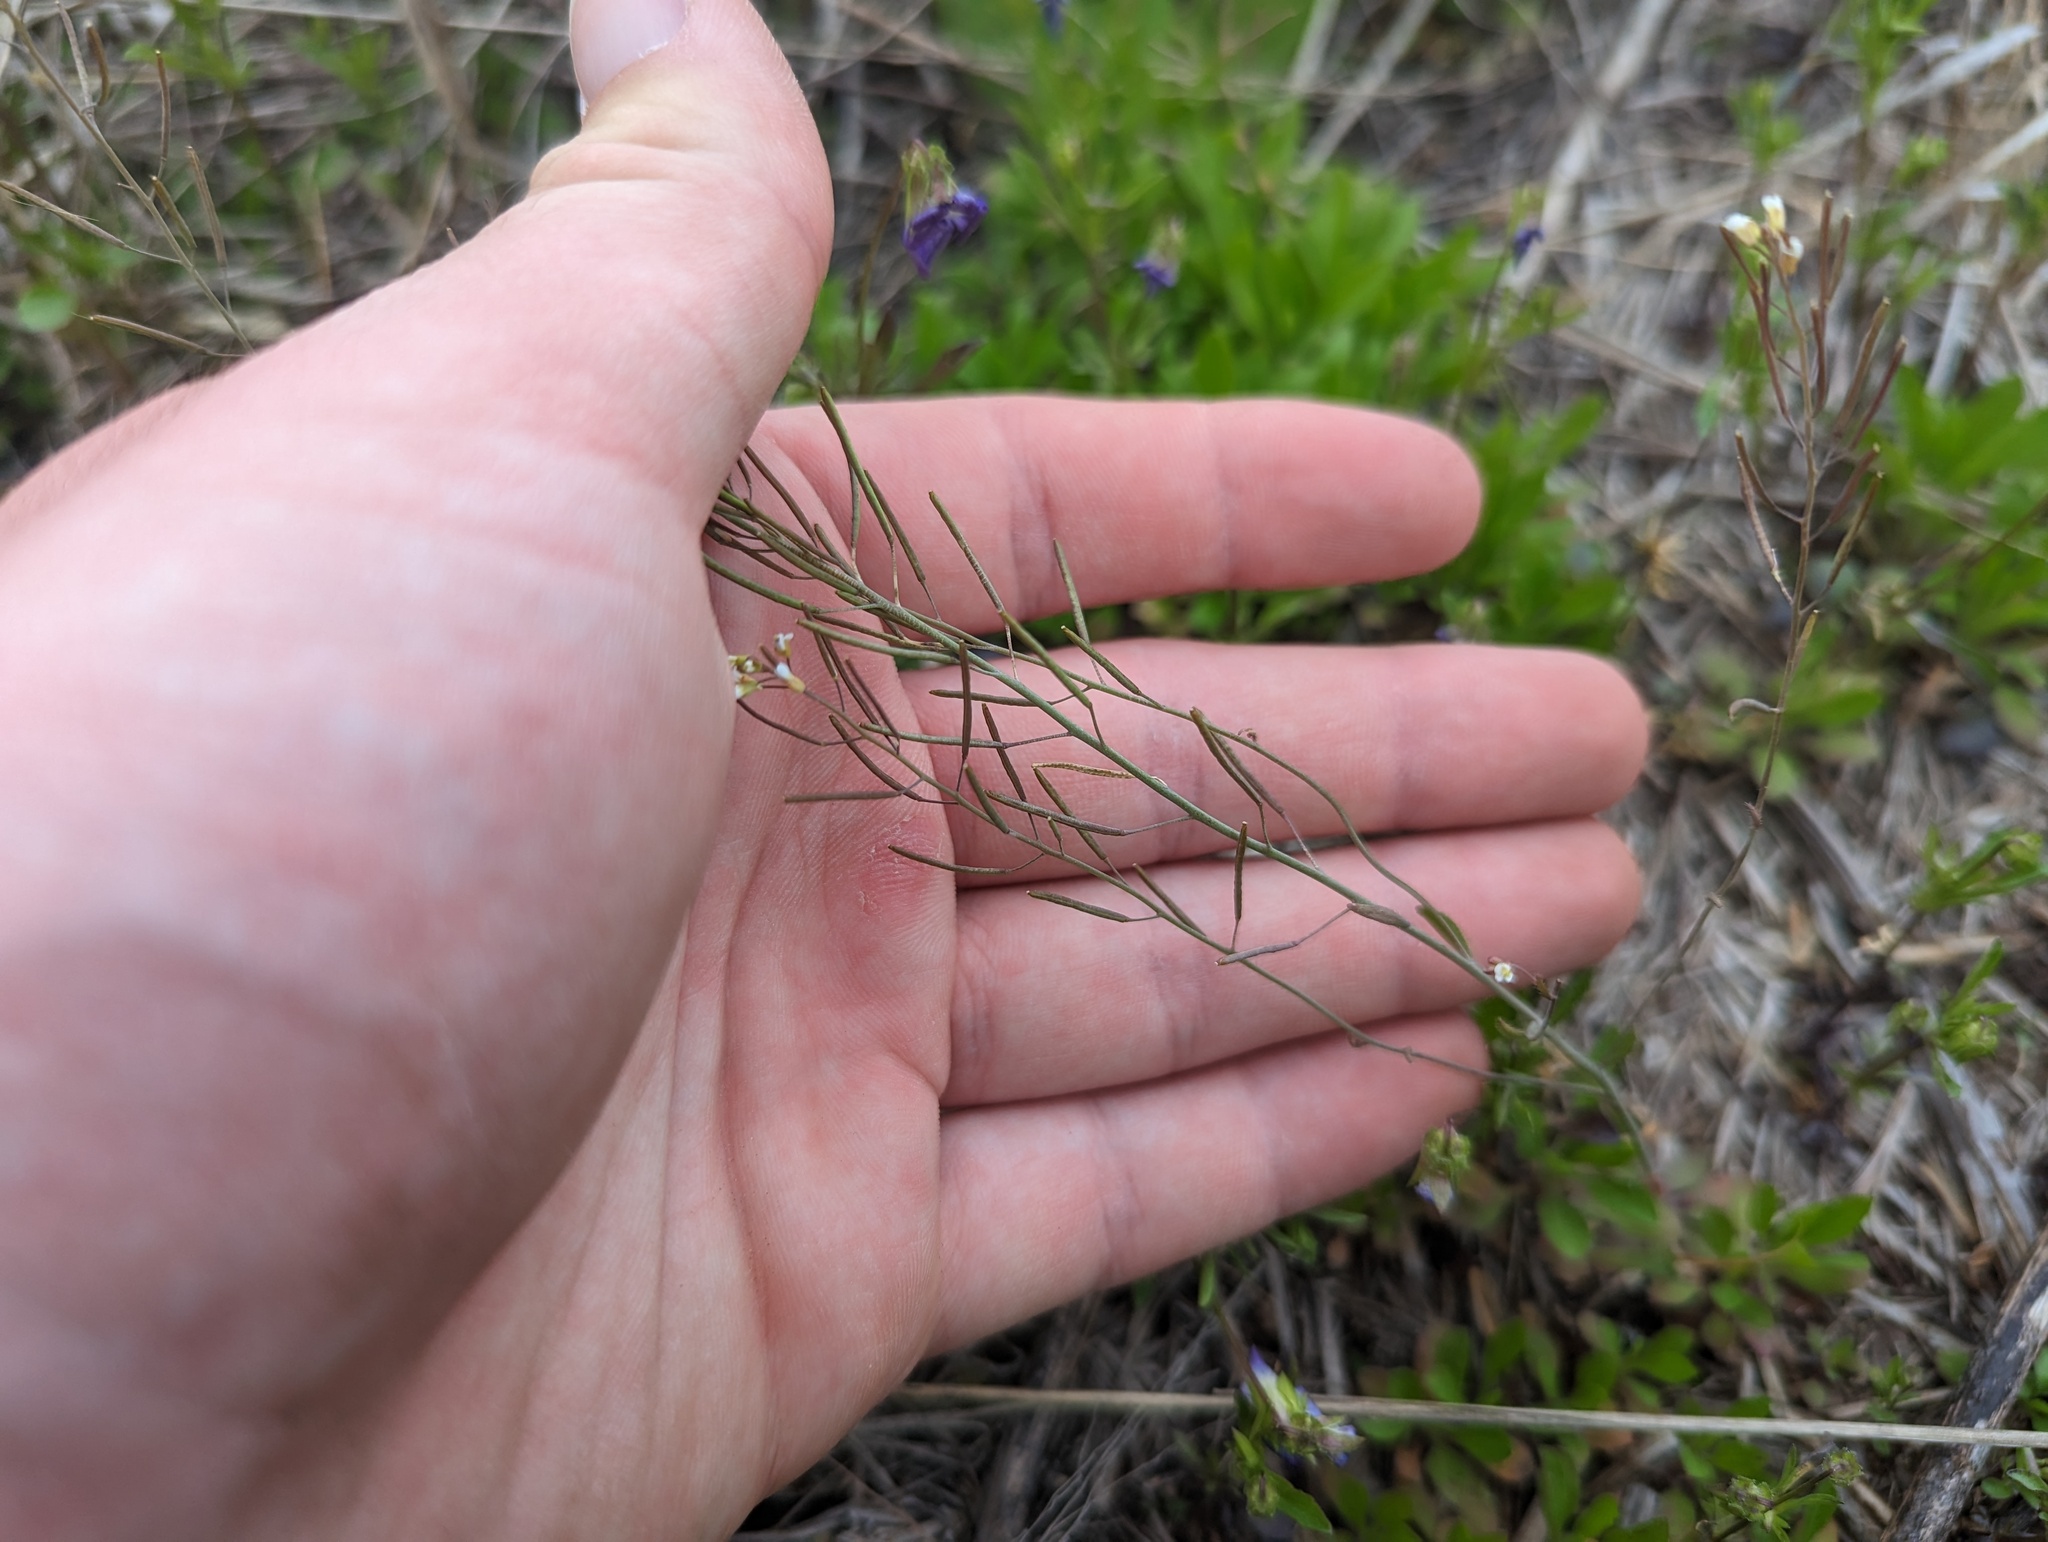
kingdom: Plantae
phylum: Tracheophyta
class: Magnoliopsida
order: Brassicales
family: Brassicaceae
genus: Arabidopsis
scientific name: Arabidopsis thaliana
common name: Thale cress
